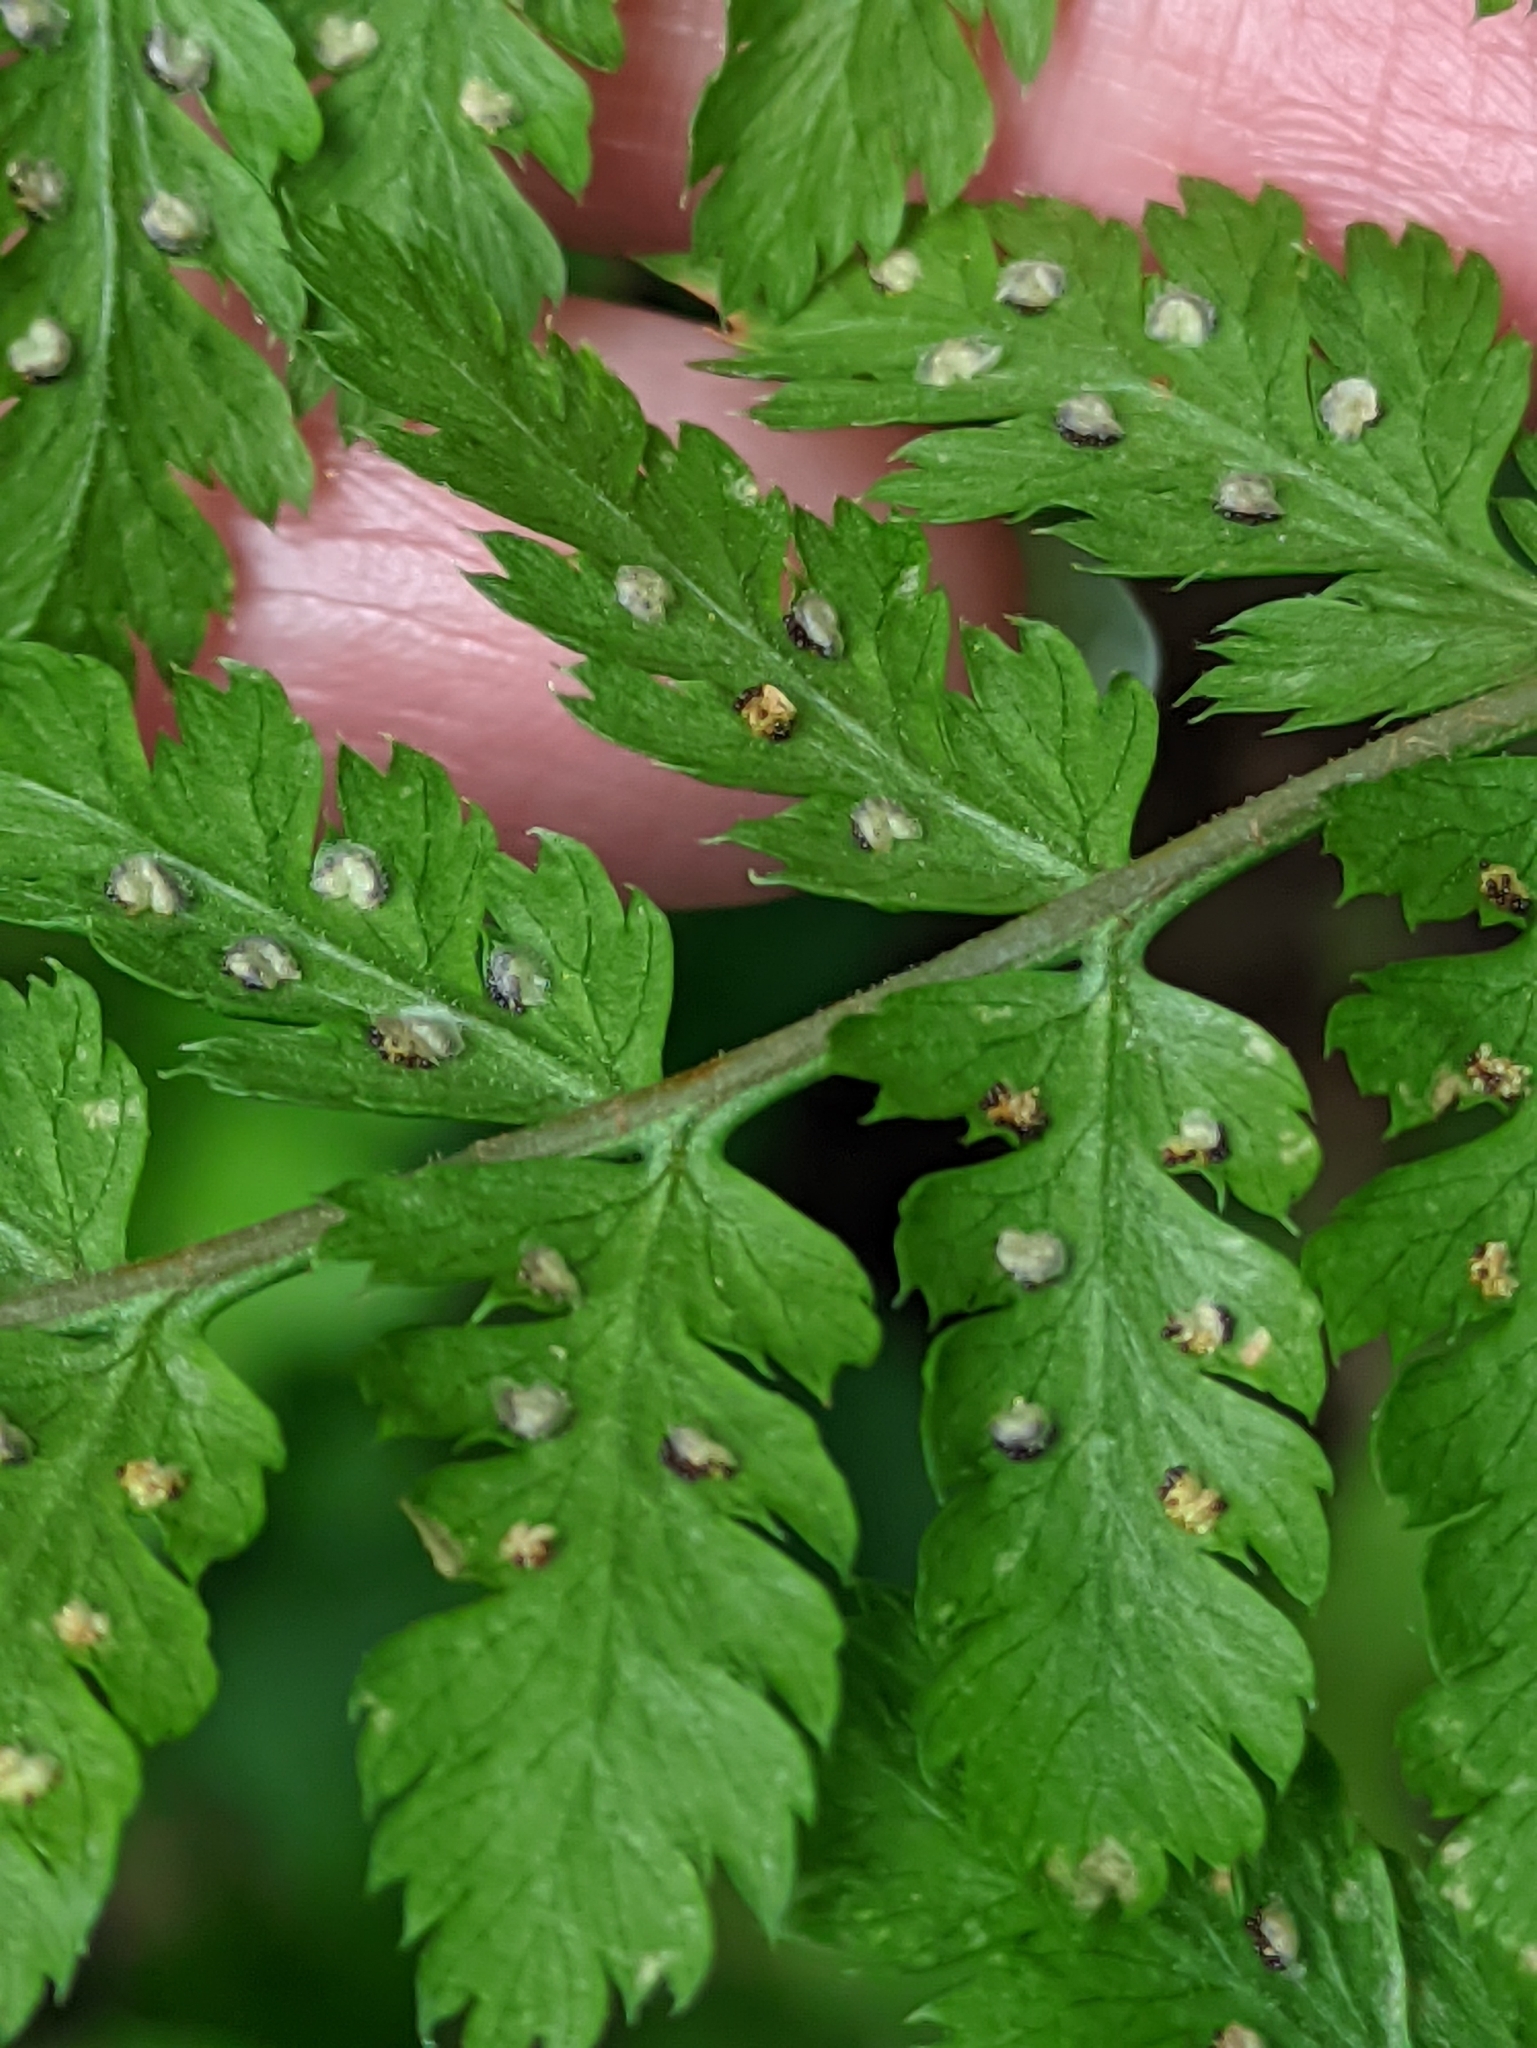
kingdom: Plantae
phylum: Tracheophyta
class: Polypodiopsida
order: Polypodiales
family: Dryopteridaceae
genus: Dryopteris
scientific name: Dryopteris expansa
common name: Northern buckler fern
